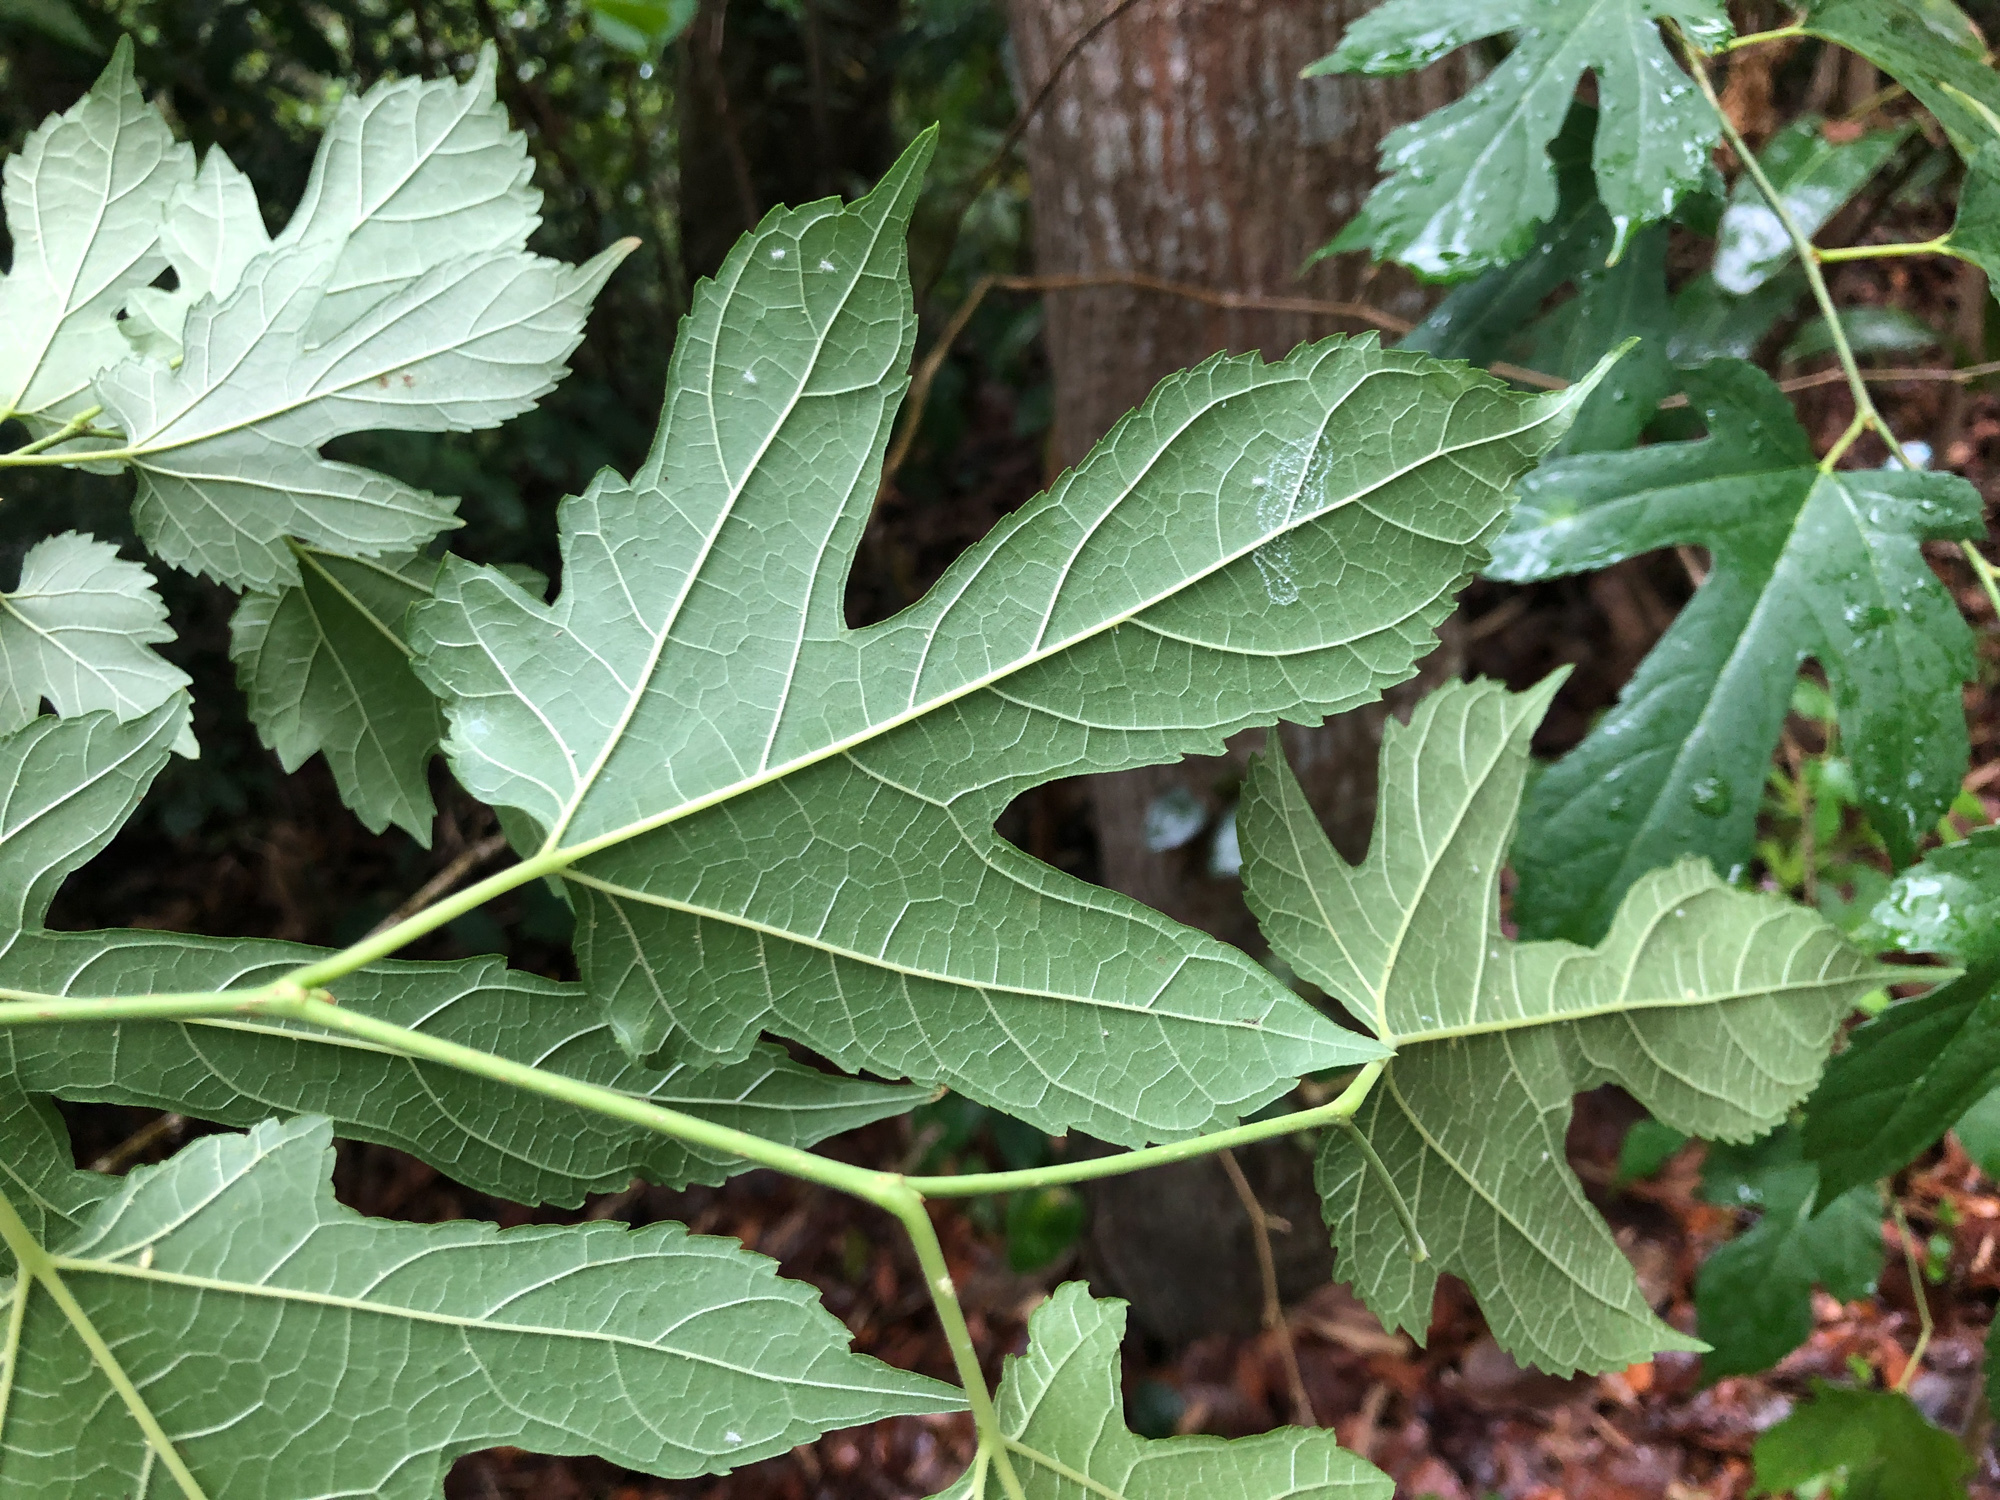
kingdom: Plantae
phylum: Tracheophyta
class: Magnoliopsida
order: Rosales
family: Moraceae
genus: Morus
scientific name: Morus indica
